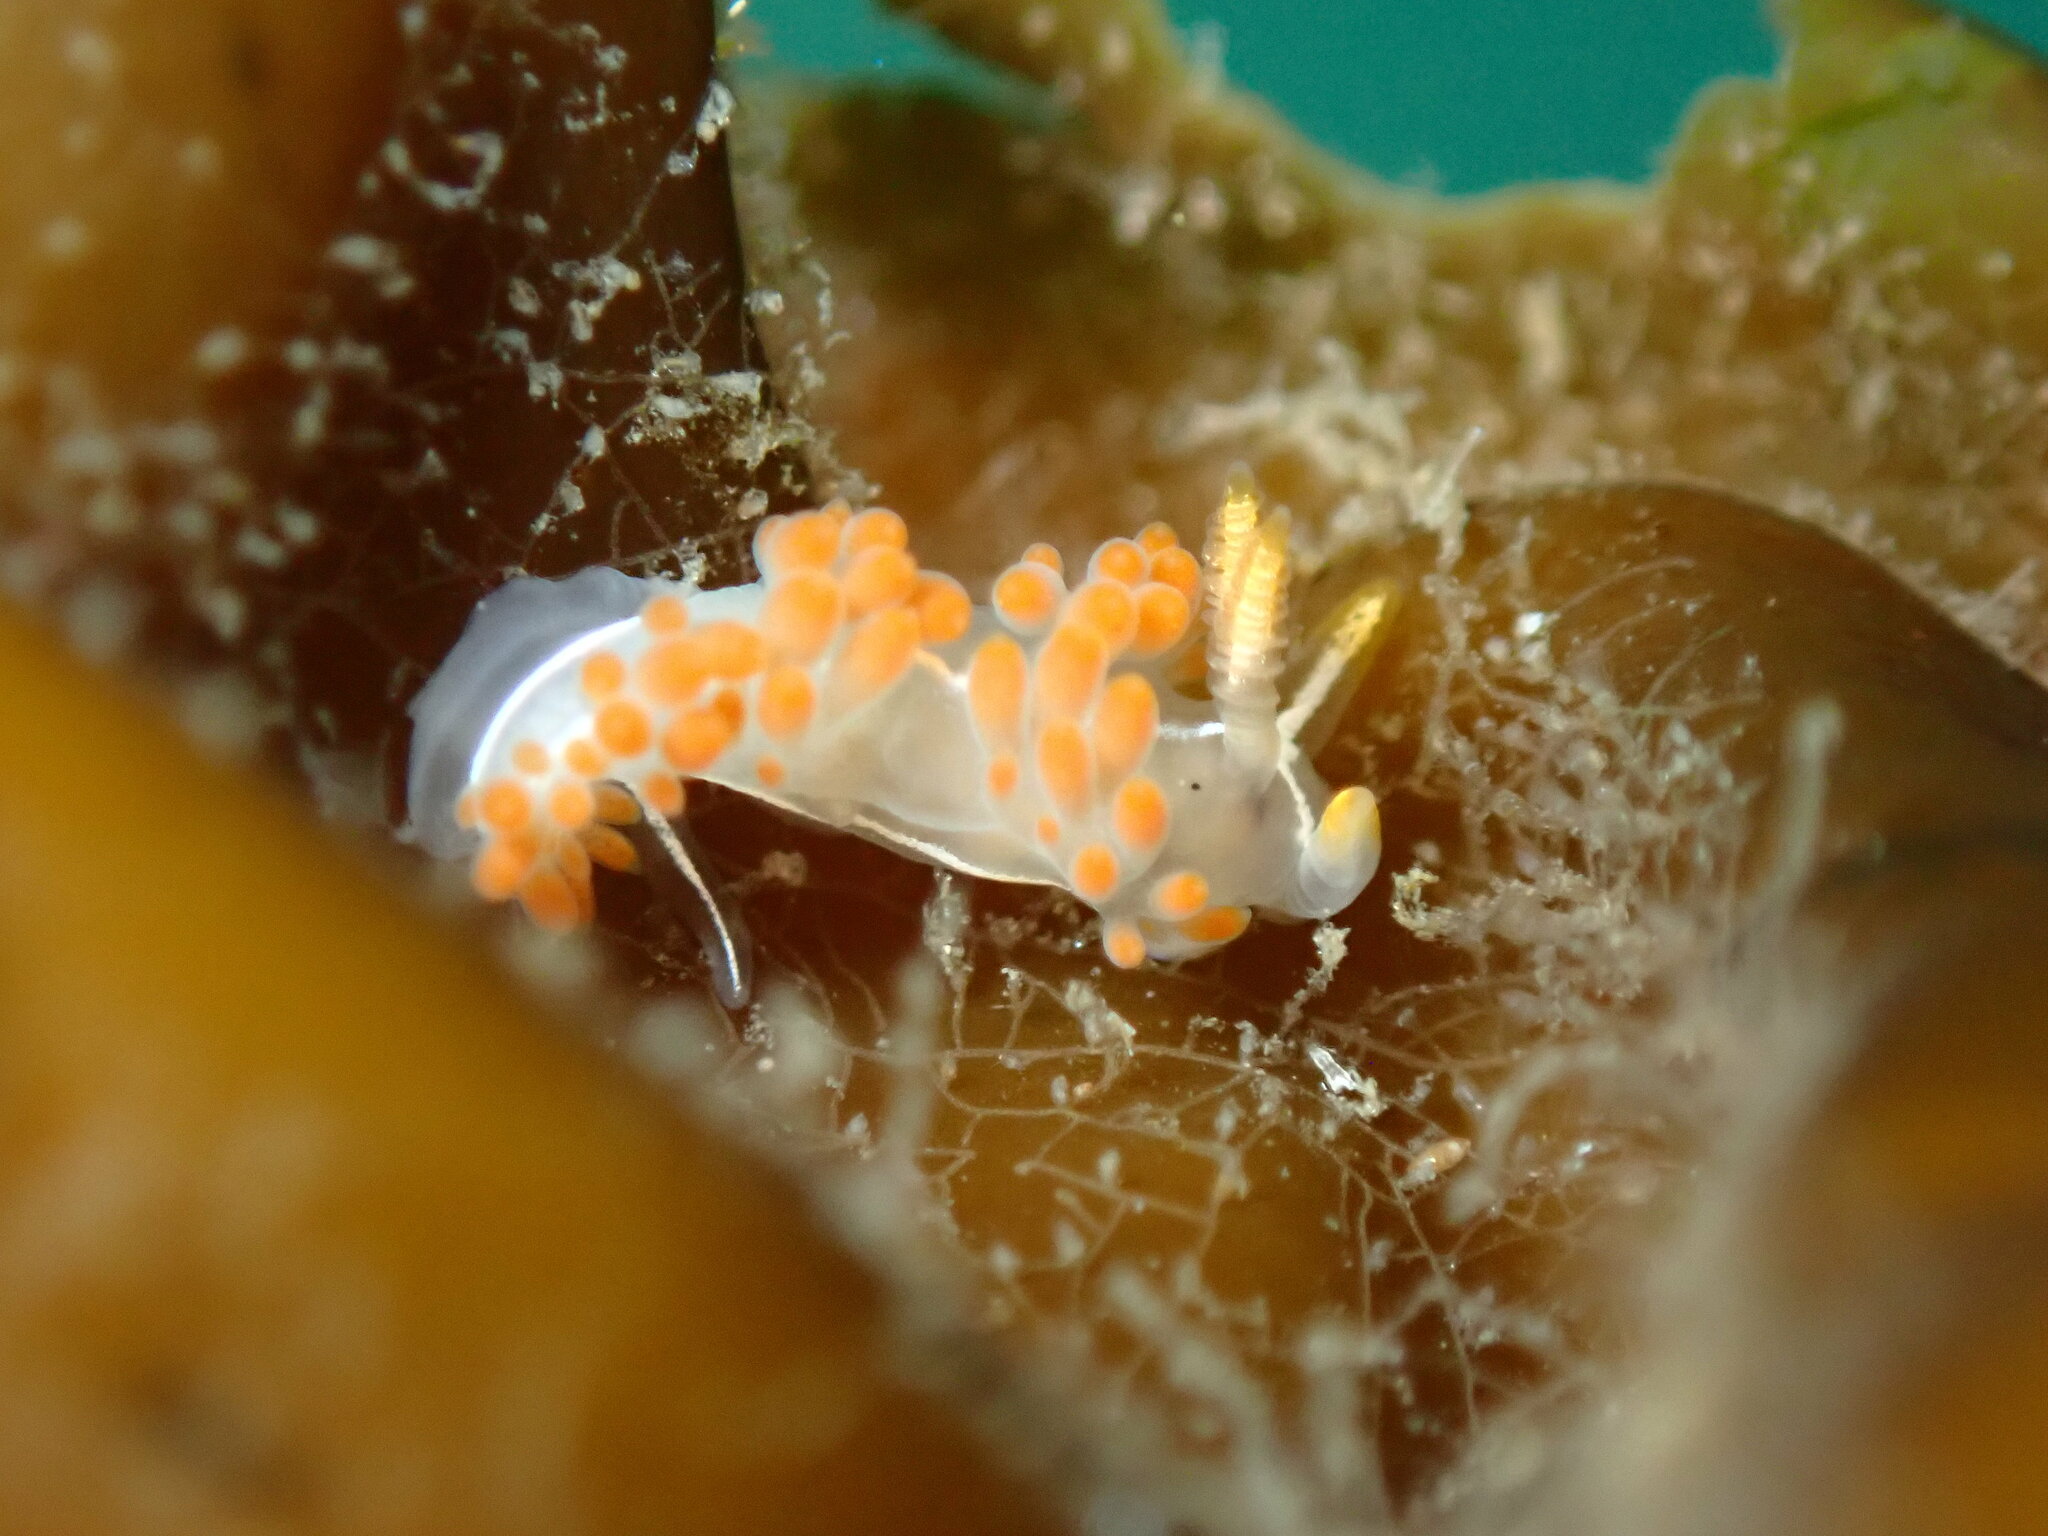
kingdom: Animalia
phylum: Mollusca
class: Gastropoda
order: Nudibranchia
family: Coryphellidae
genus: Coryphella
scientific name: Coryphella trilineata
